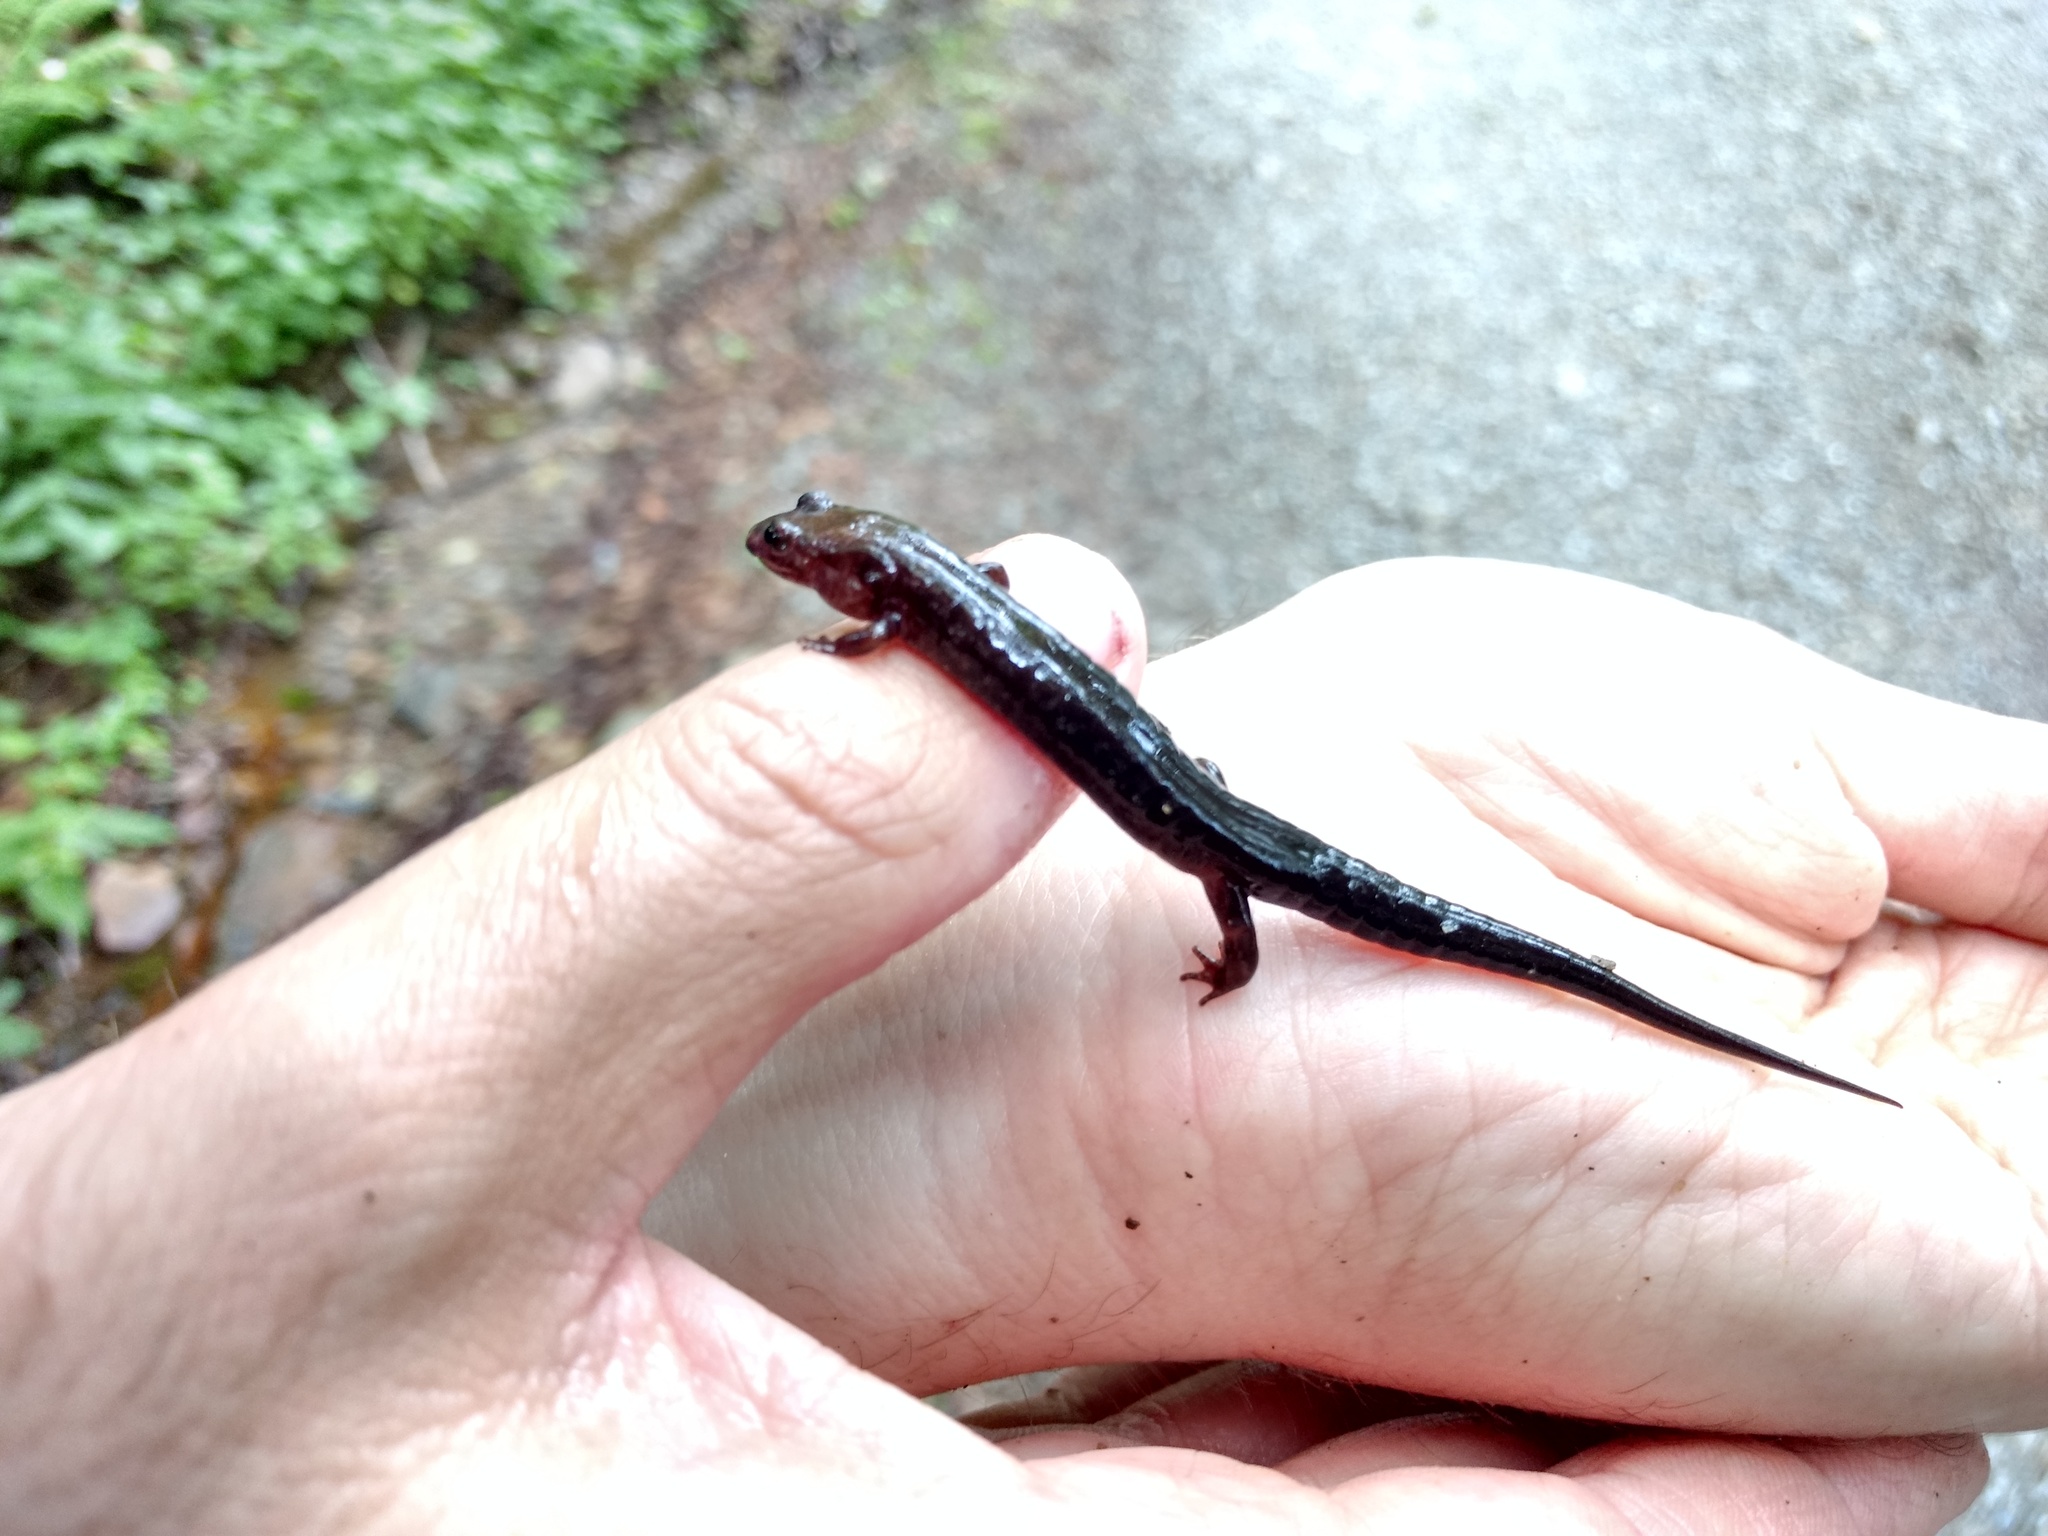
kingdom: Animalia
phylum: Chordata
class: Amphibia
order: Caudata
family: Plethodontidae
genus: Desmognathus
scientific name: Desmognathus carolinensis
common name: Carolina mountain dusky salamander
